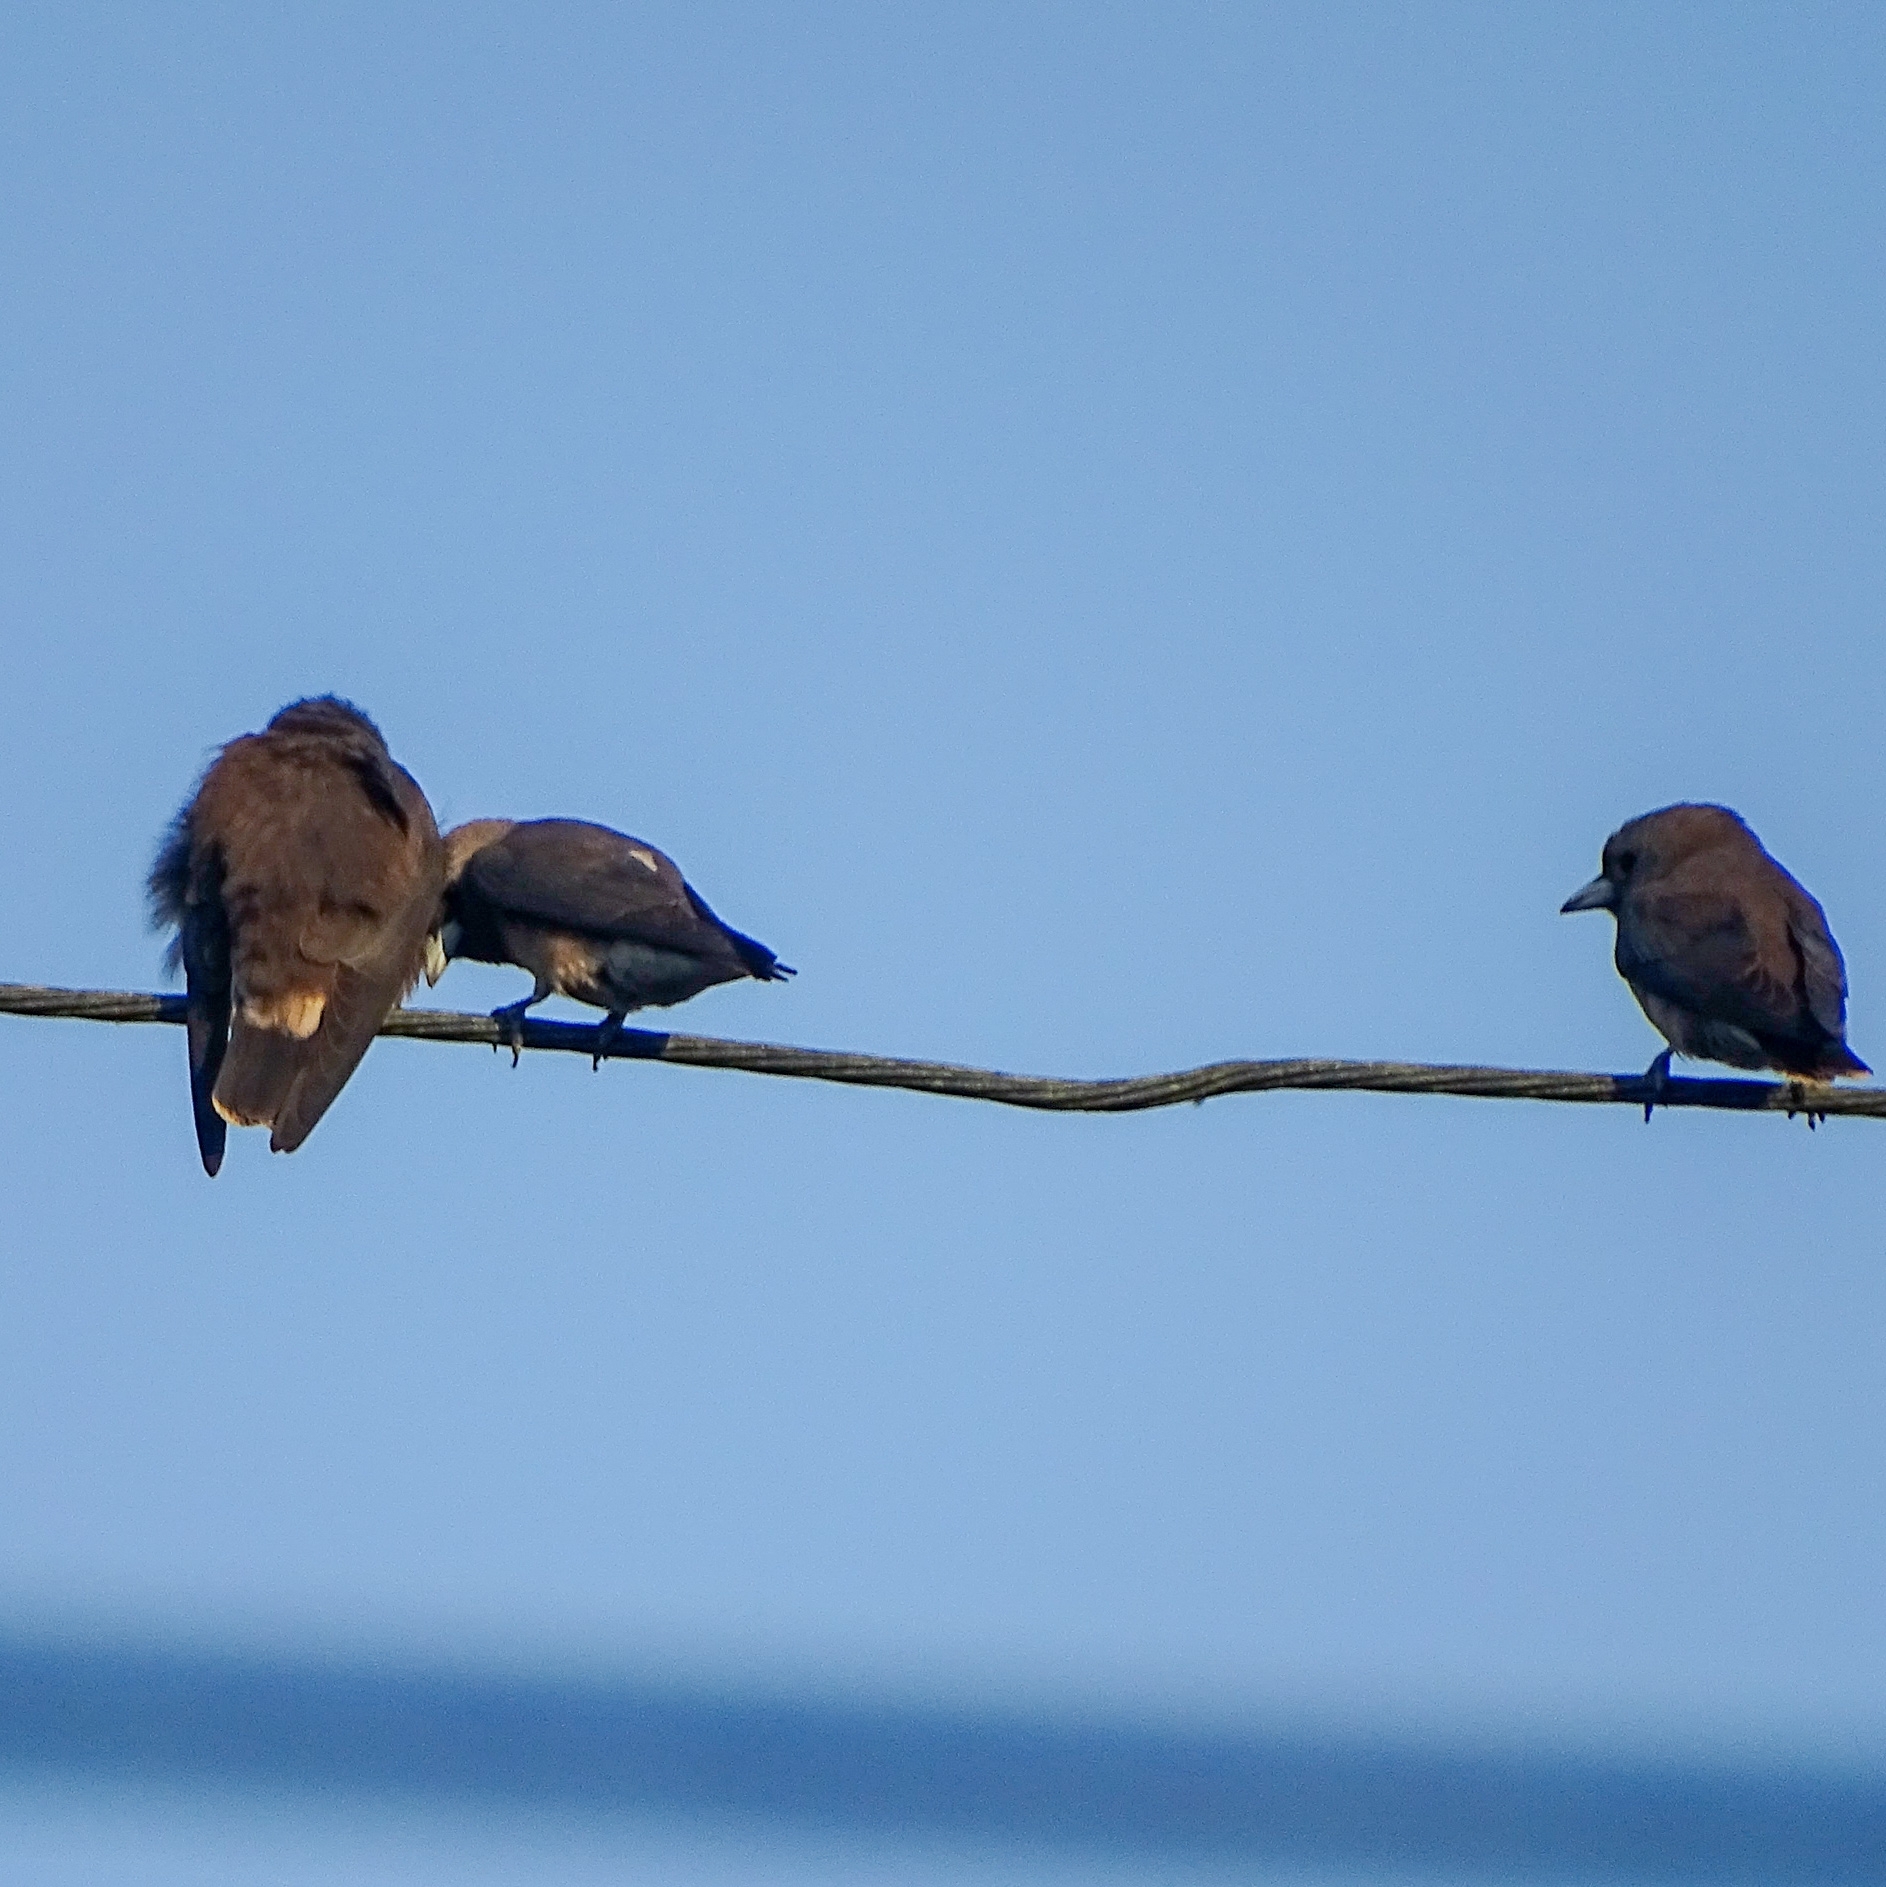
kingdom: Animalia
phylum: Chordata
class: Aves
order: Passeriformes
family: Artamidae
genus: Artamus
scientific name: Artamus fuscus
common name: Ashy woodswallow
